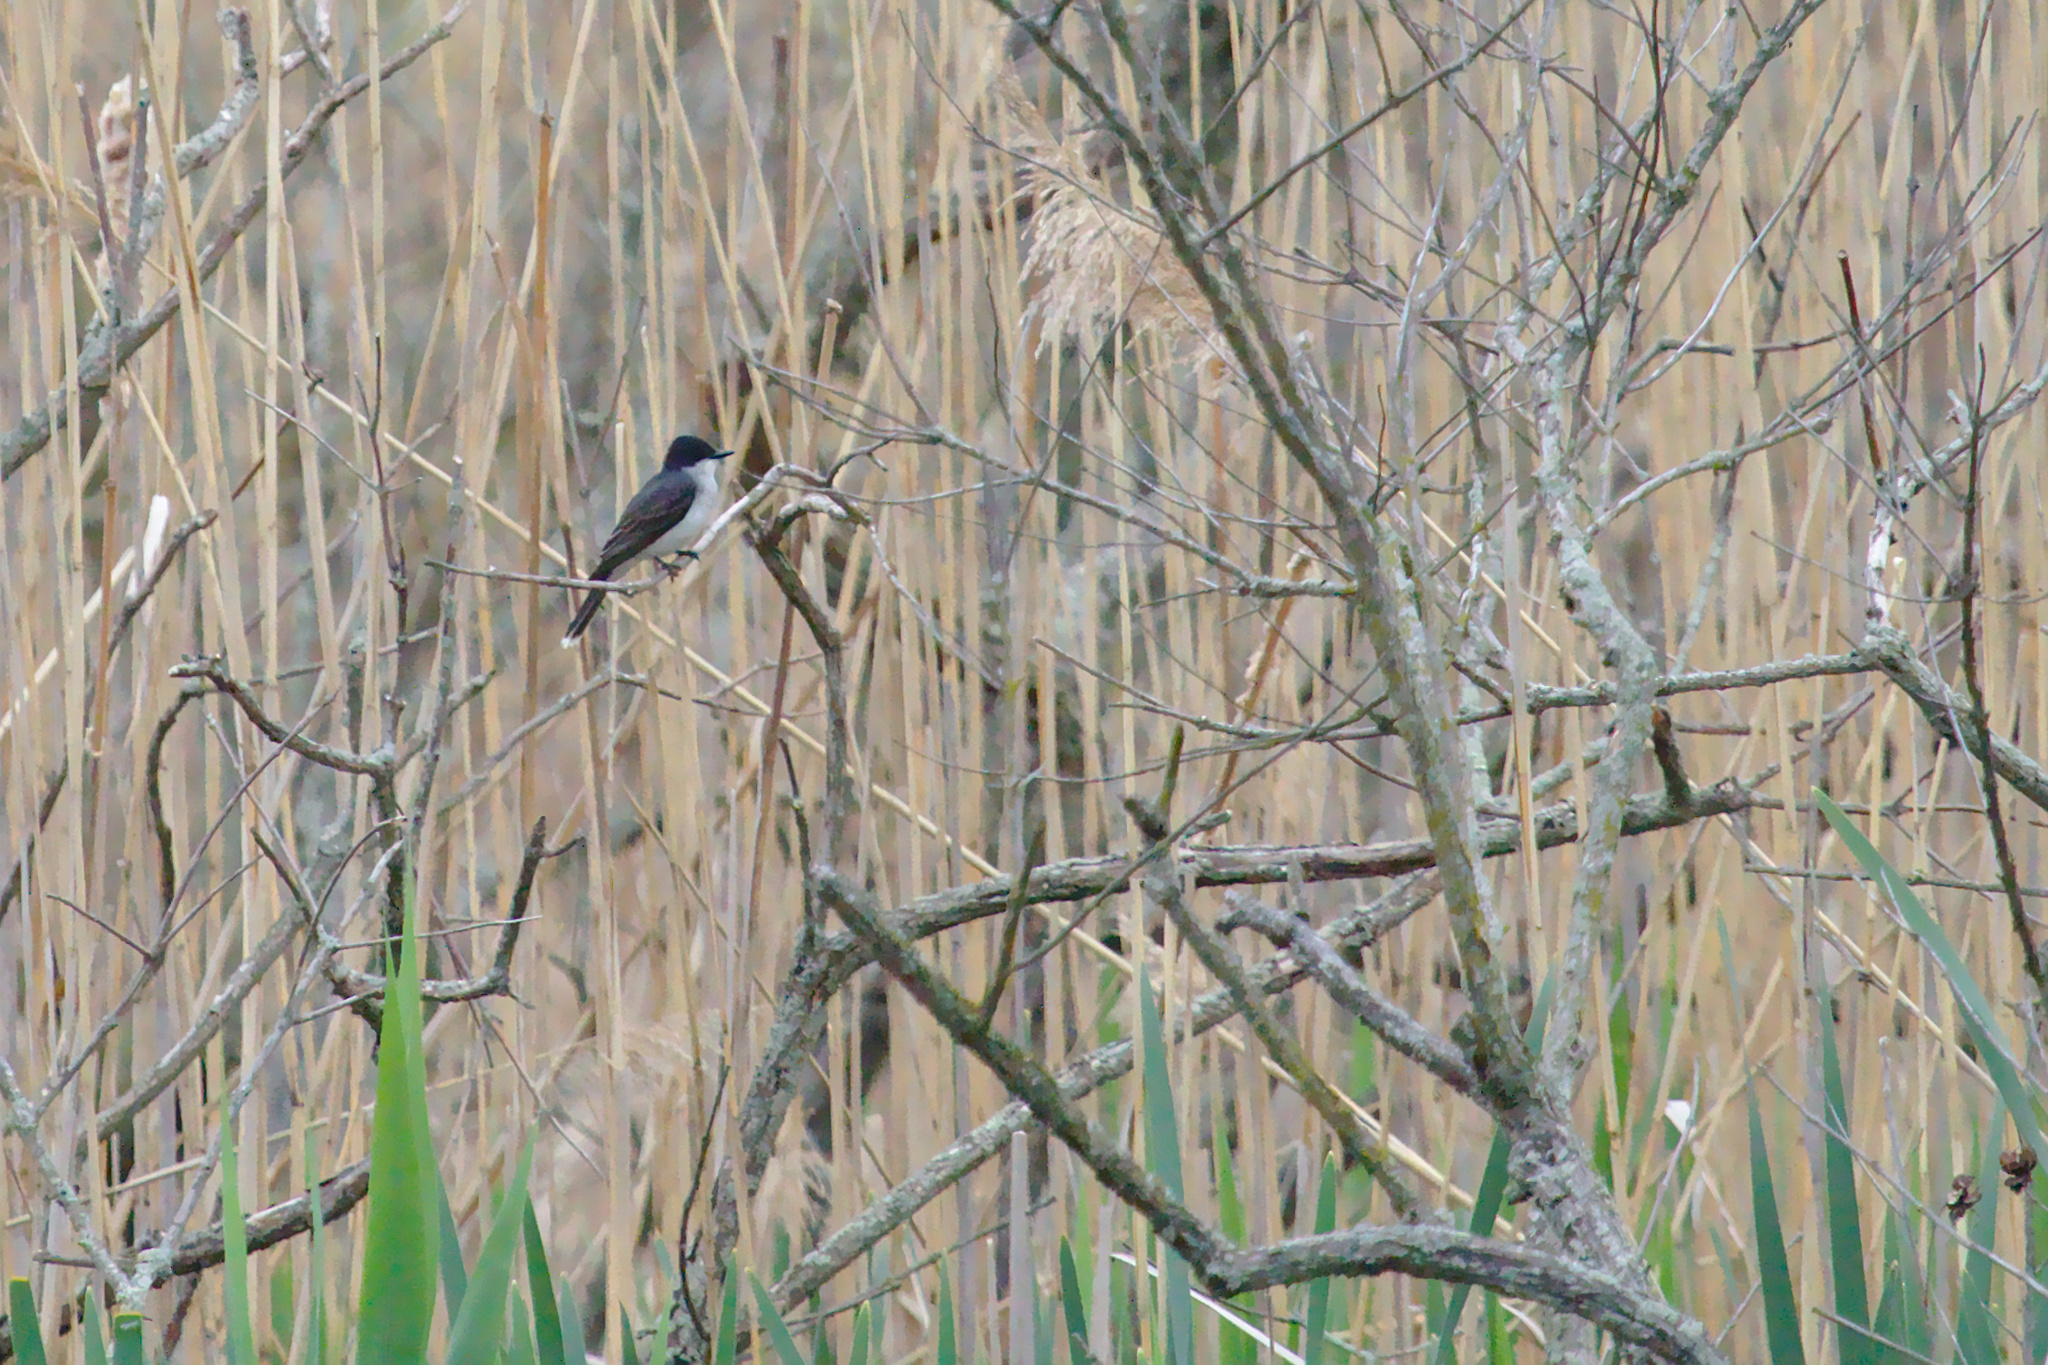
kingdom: Animalia
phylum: Chordata
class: Aves
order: Passeriformes
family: Tyrannidae
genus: Tyrannus
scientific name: Tyrannus tyrannus
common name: Eastern kingbird
